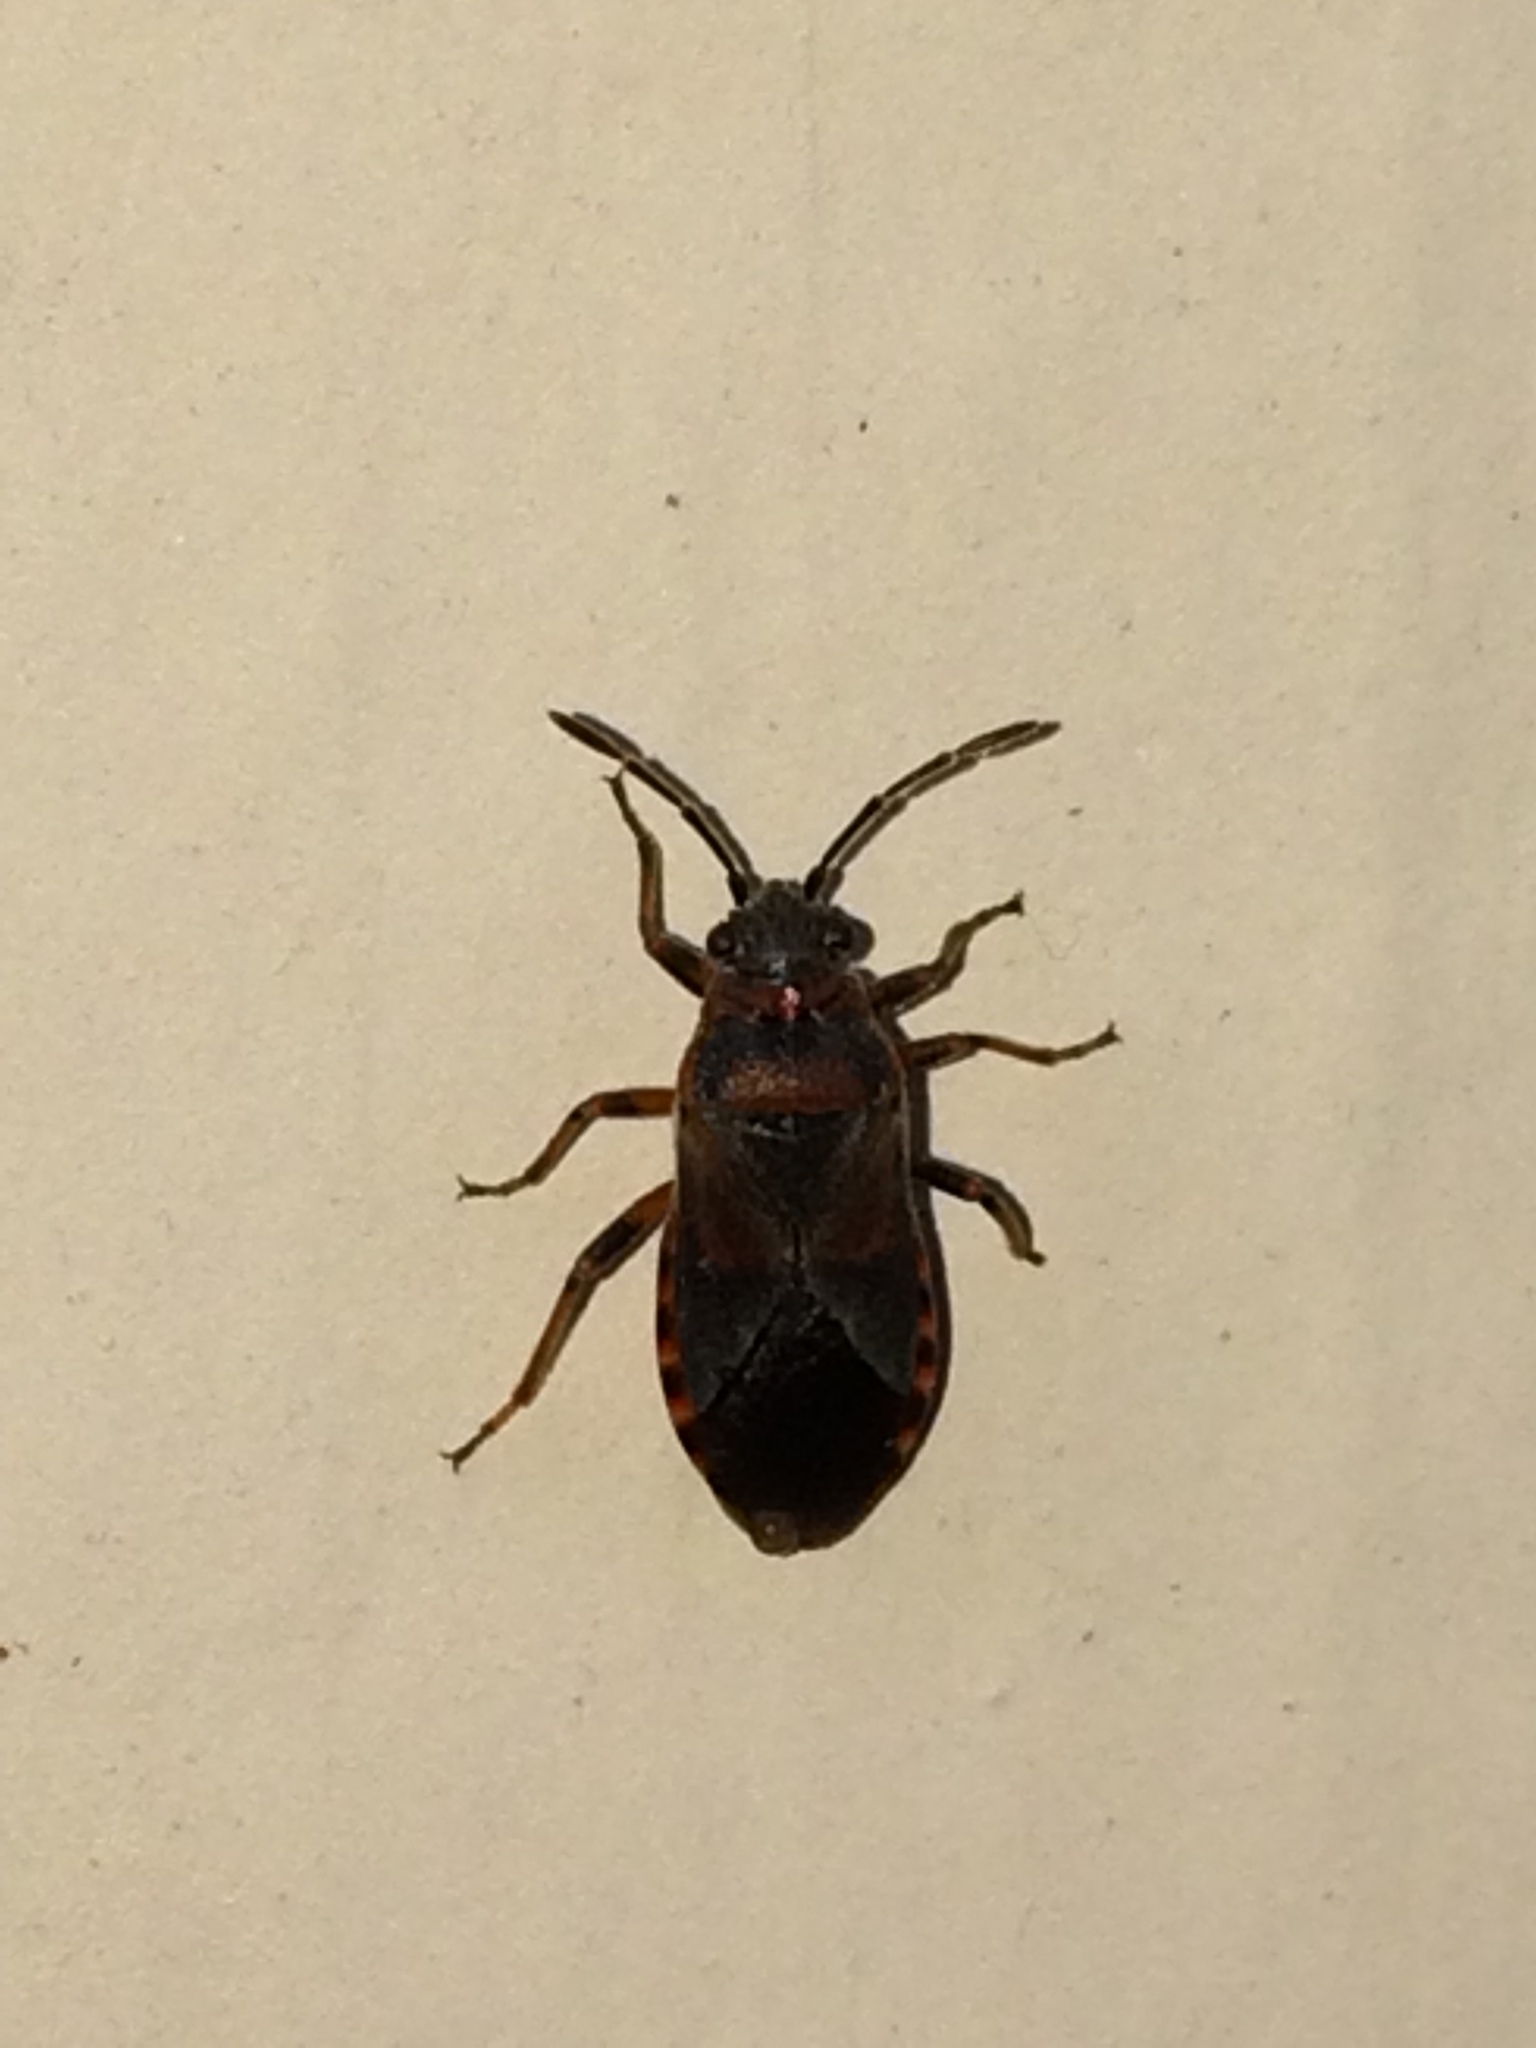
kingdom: Animalia
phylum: Arthropoda
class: Insecta
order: Hemiptera
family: Lygaeidae
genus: Arocatus
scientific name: Arocatus melanocephalus
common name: Lygaeid bug
